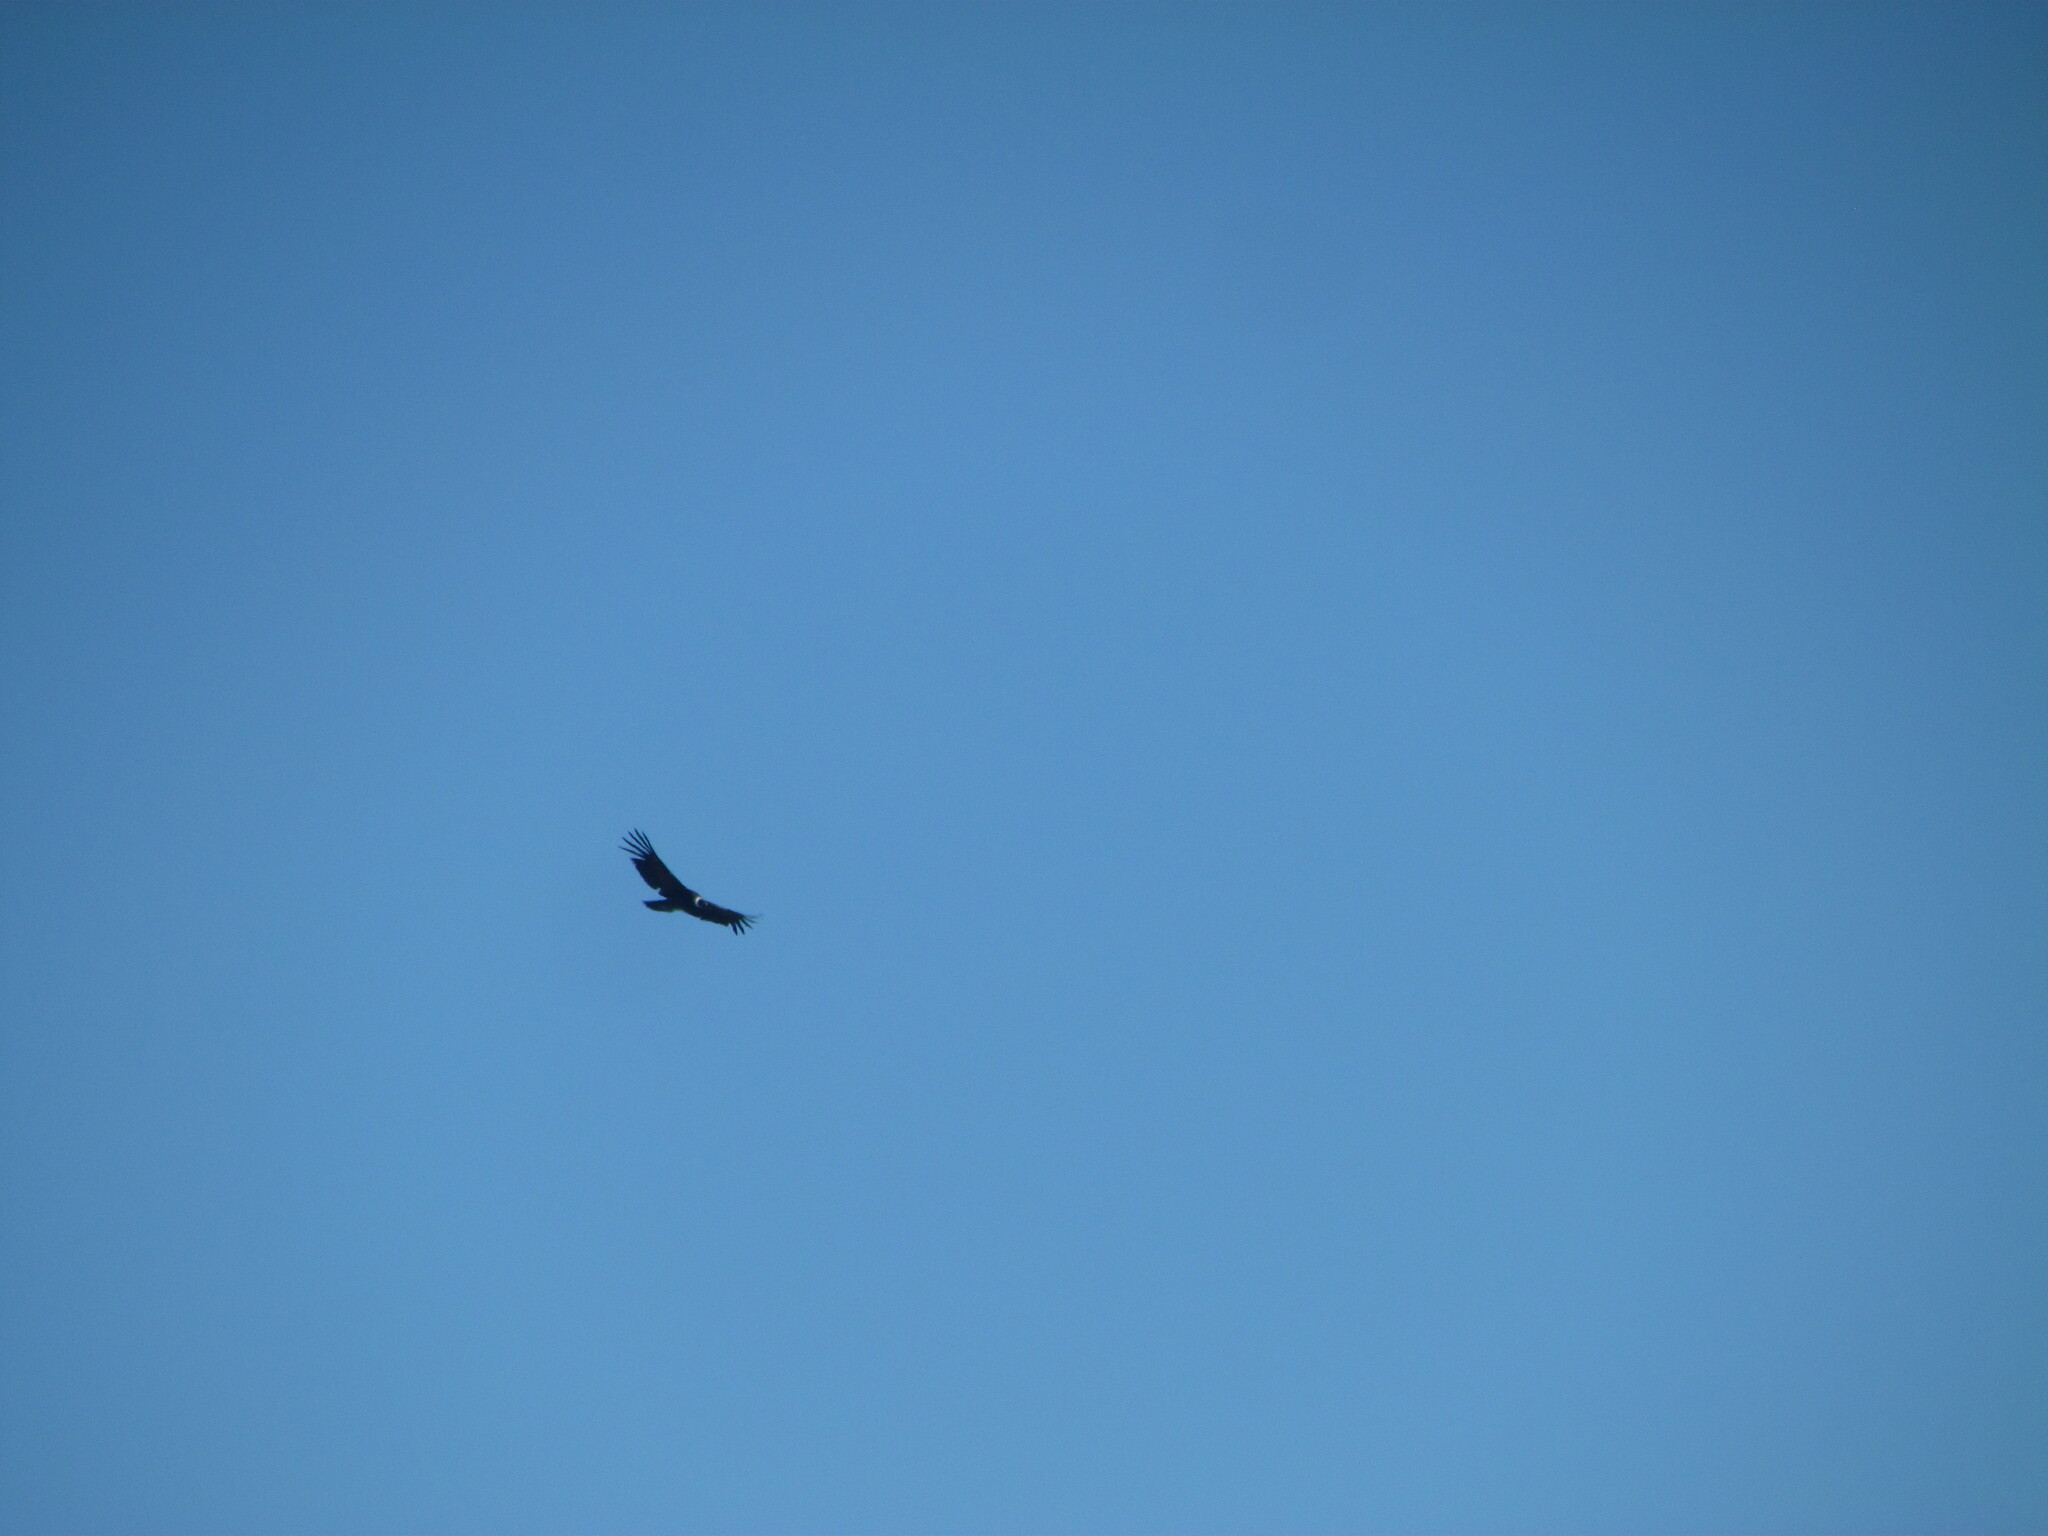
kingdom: Animalia
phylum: Chordata
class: Aves
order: Accipitriformes
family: Cathartidae
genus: Vultur
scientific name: Vultur gryphus
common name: Andean condor
